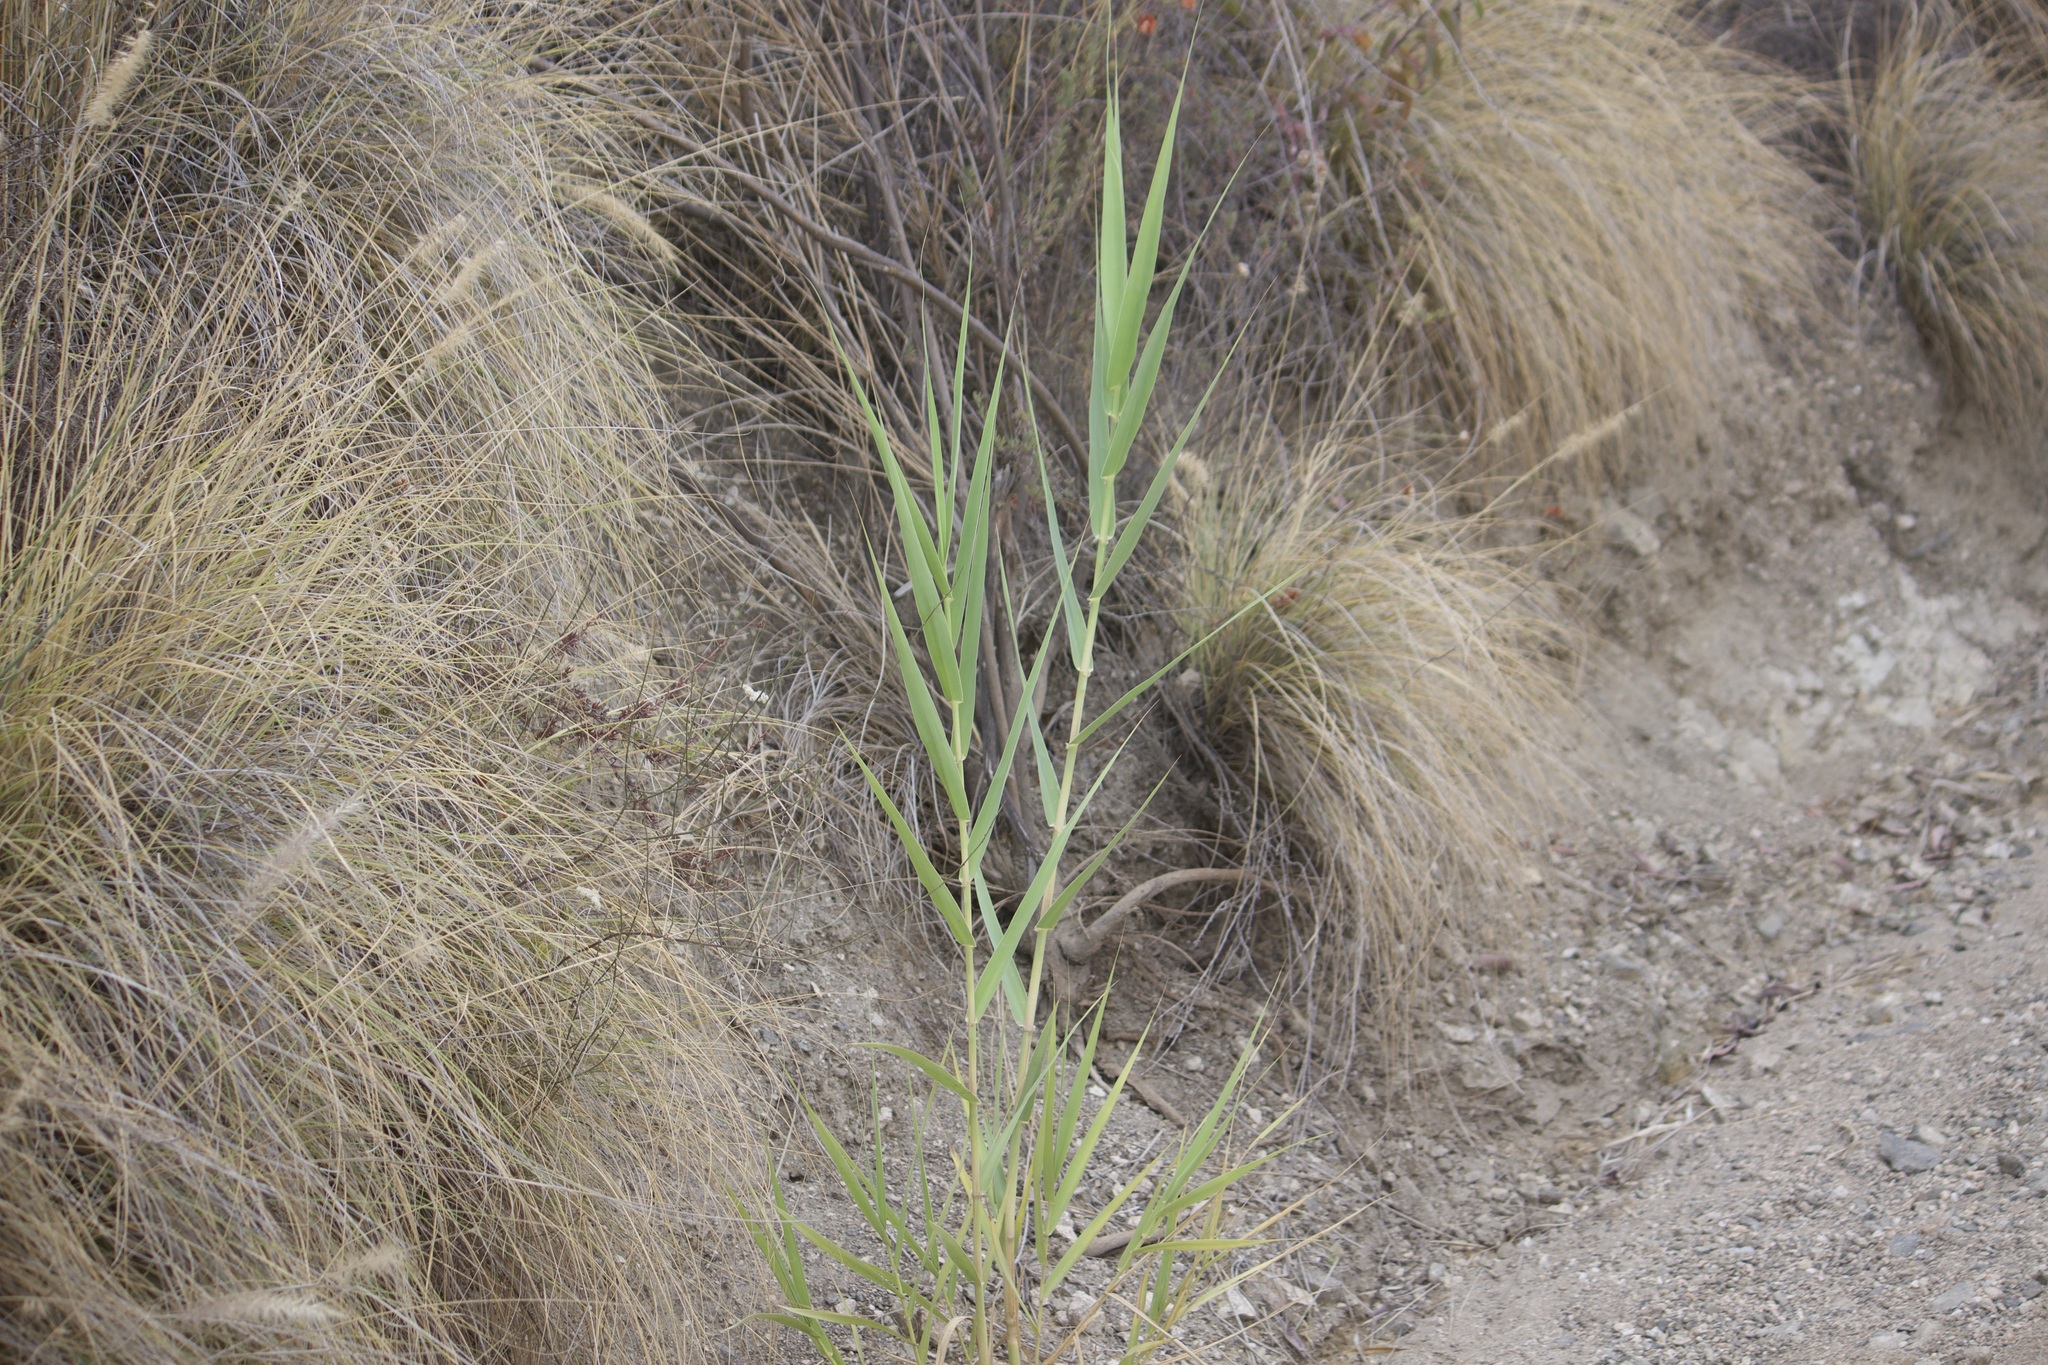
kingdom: Plantae
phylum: Tracheophyta
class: Liliopsida
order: Poales
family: Poaceae
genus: Arundo
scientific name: Arundo donax
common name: Giant reed
